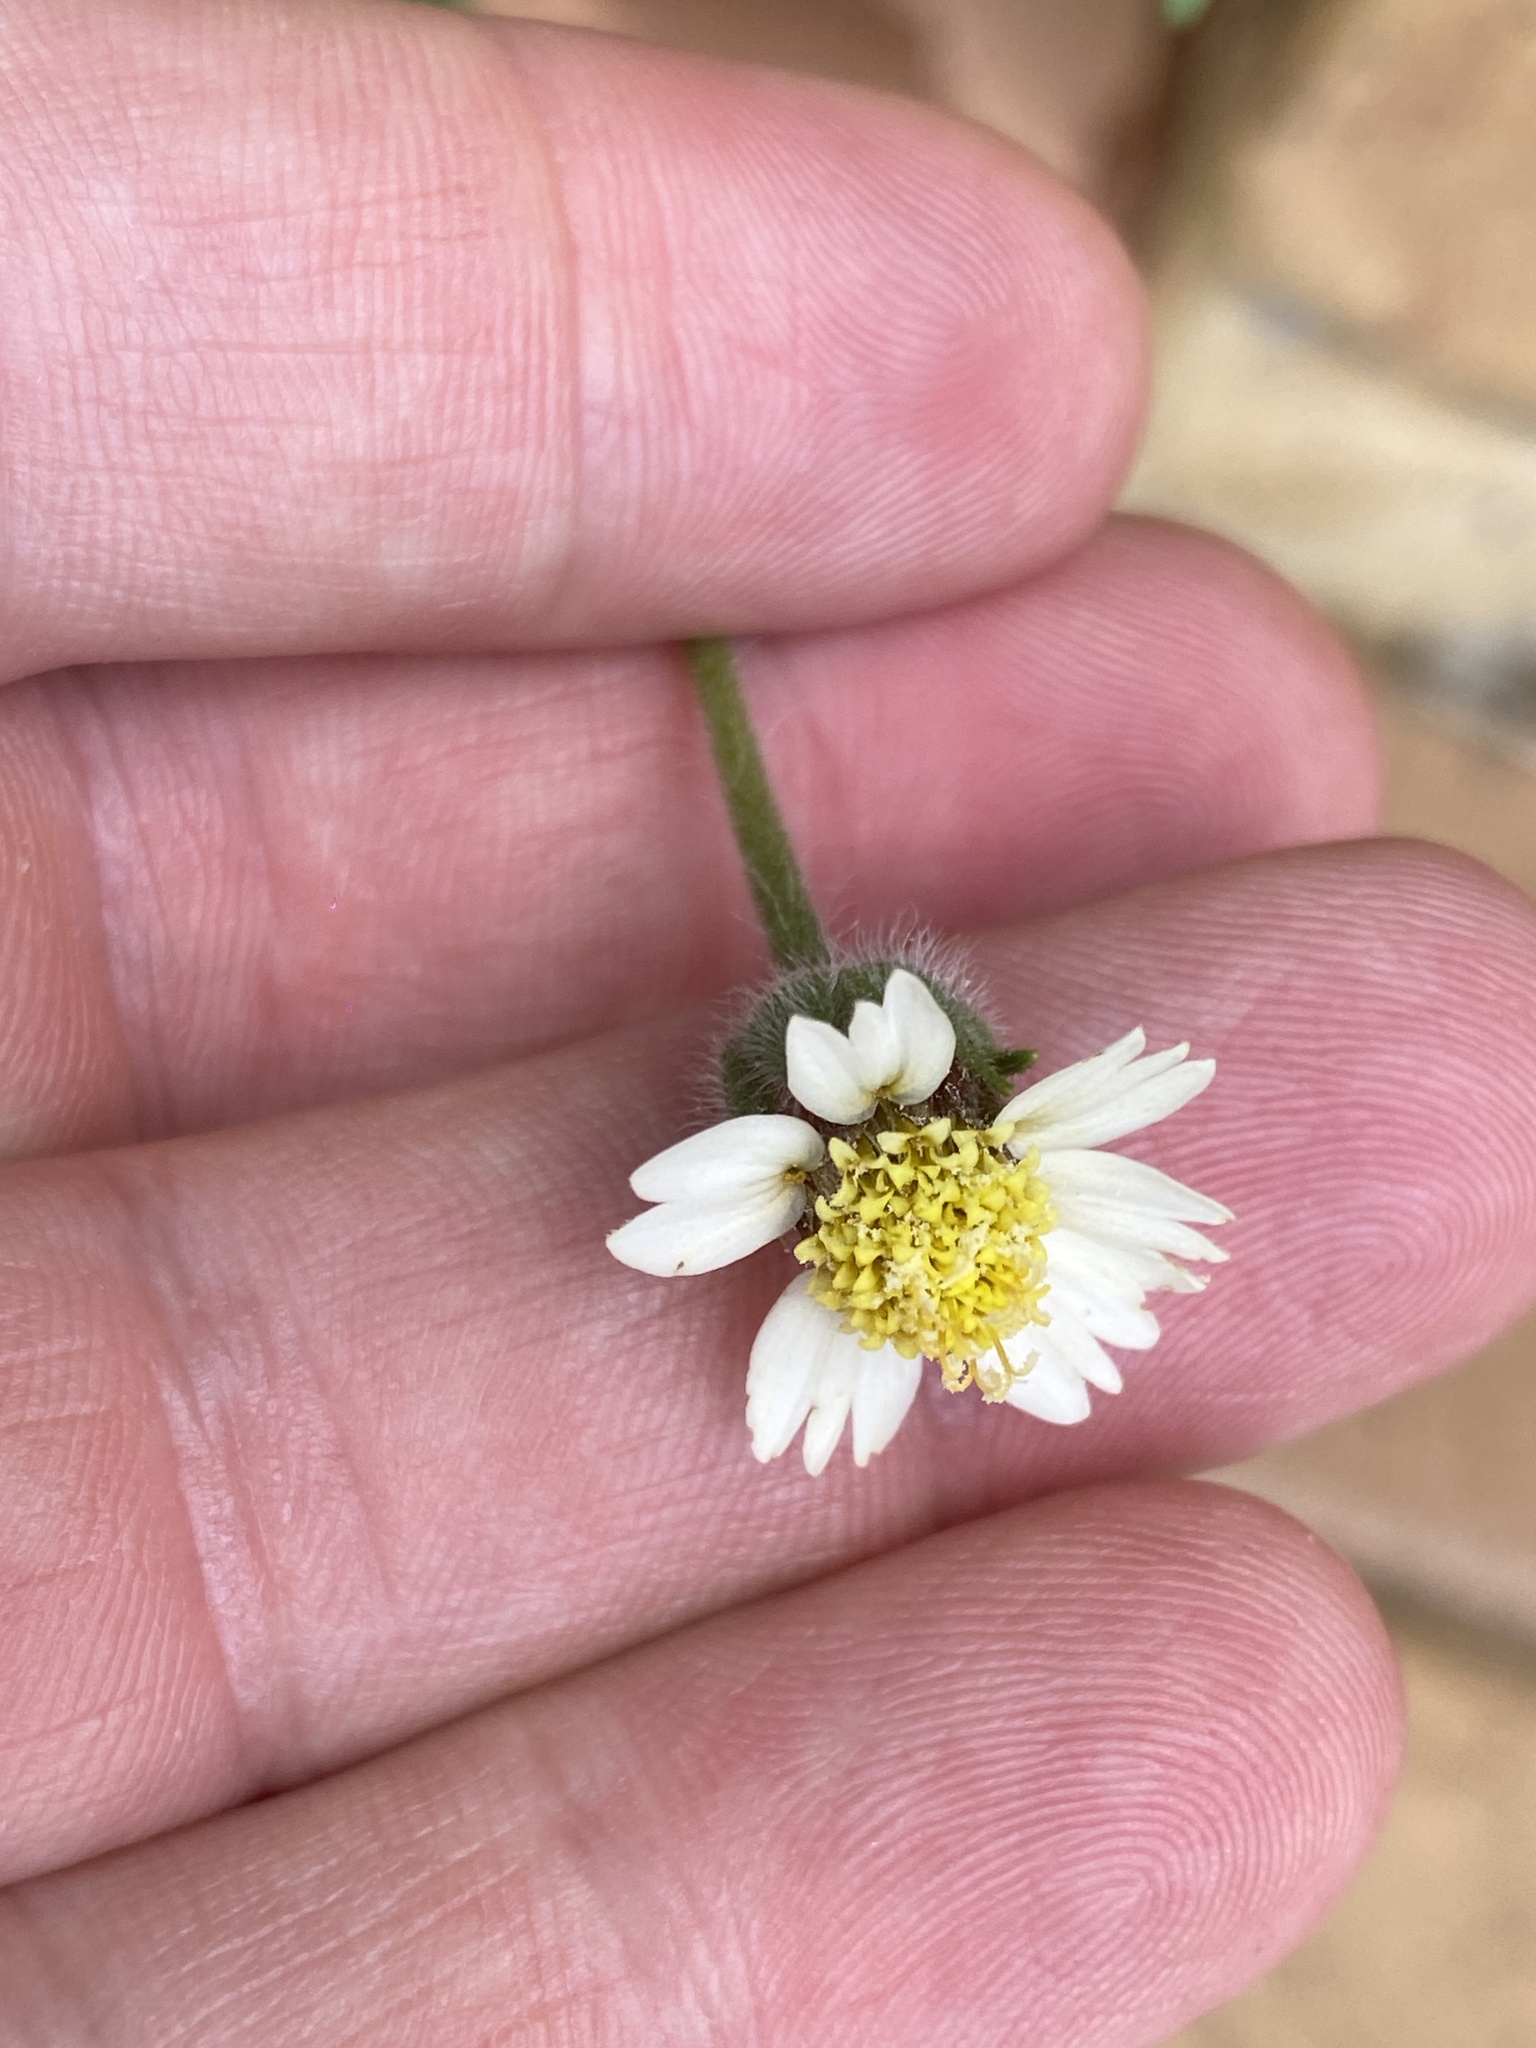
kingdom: Plantae
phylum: Tracheophyta
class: Magnoliopsida
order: Asterales
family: Asteraceae
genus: Tridax
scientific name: Tridax procumbens
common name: Coatbuttons
